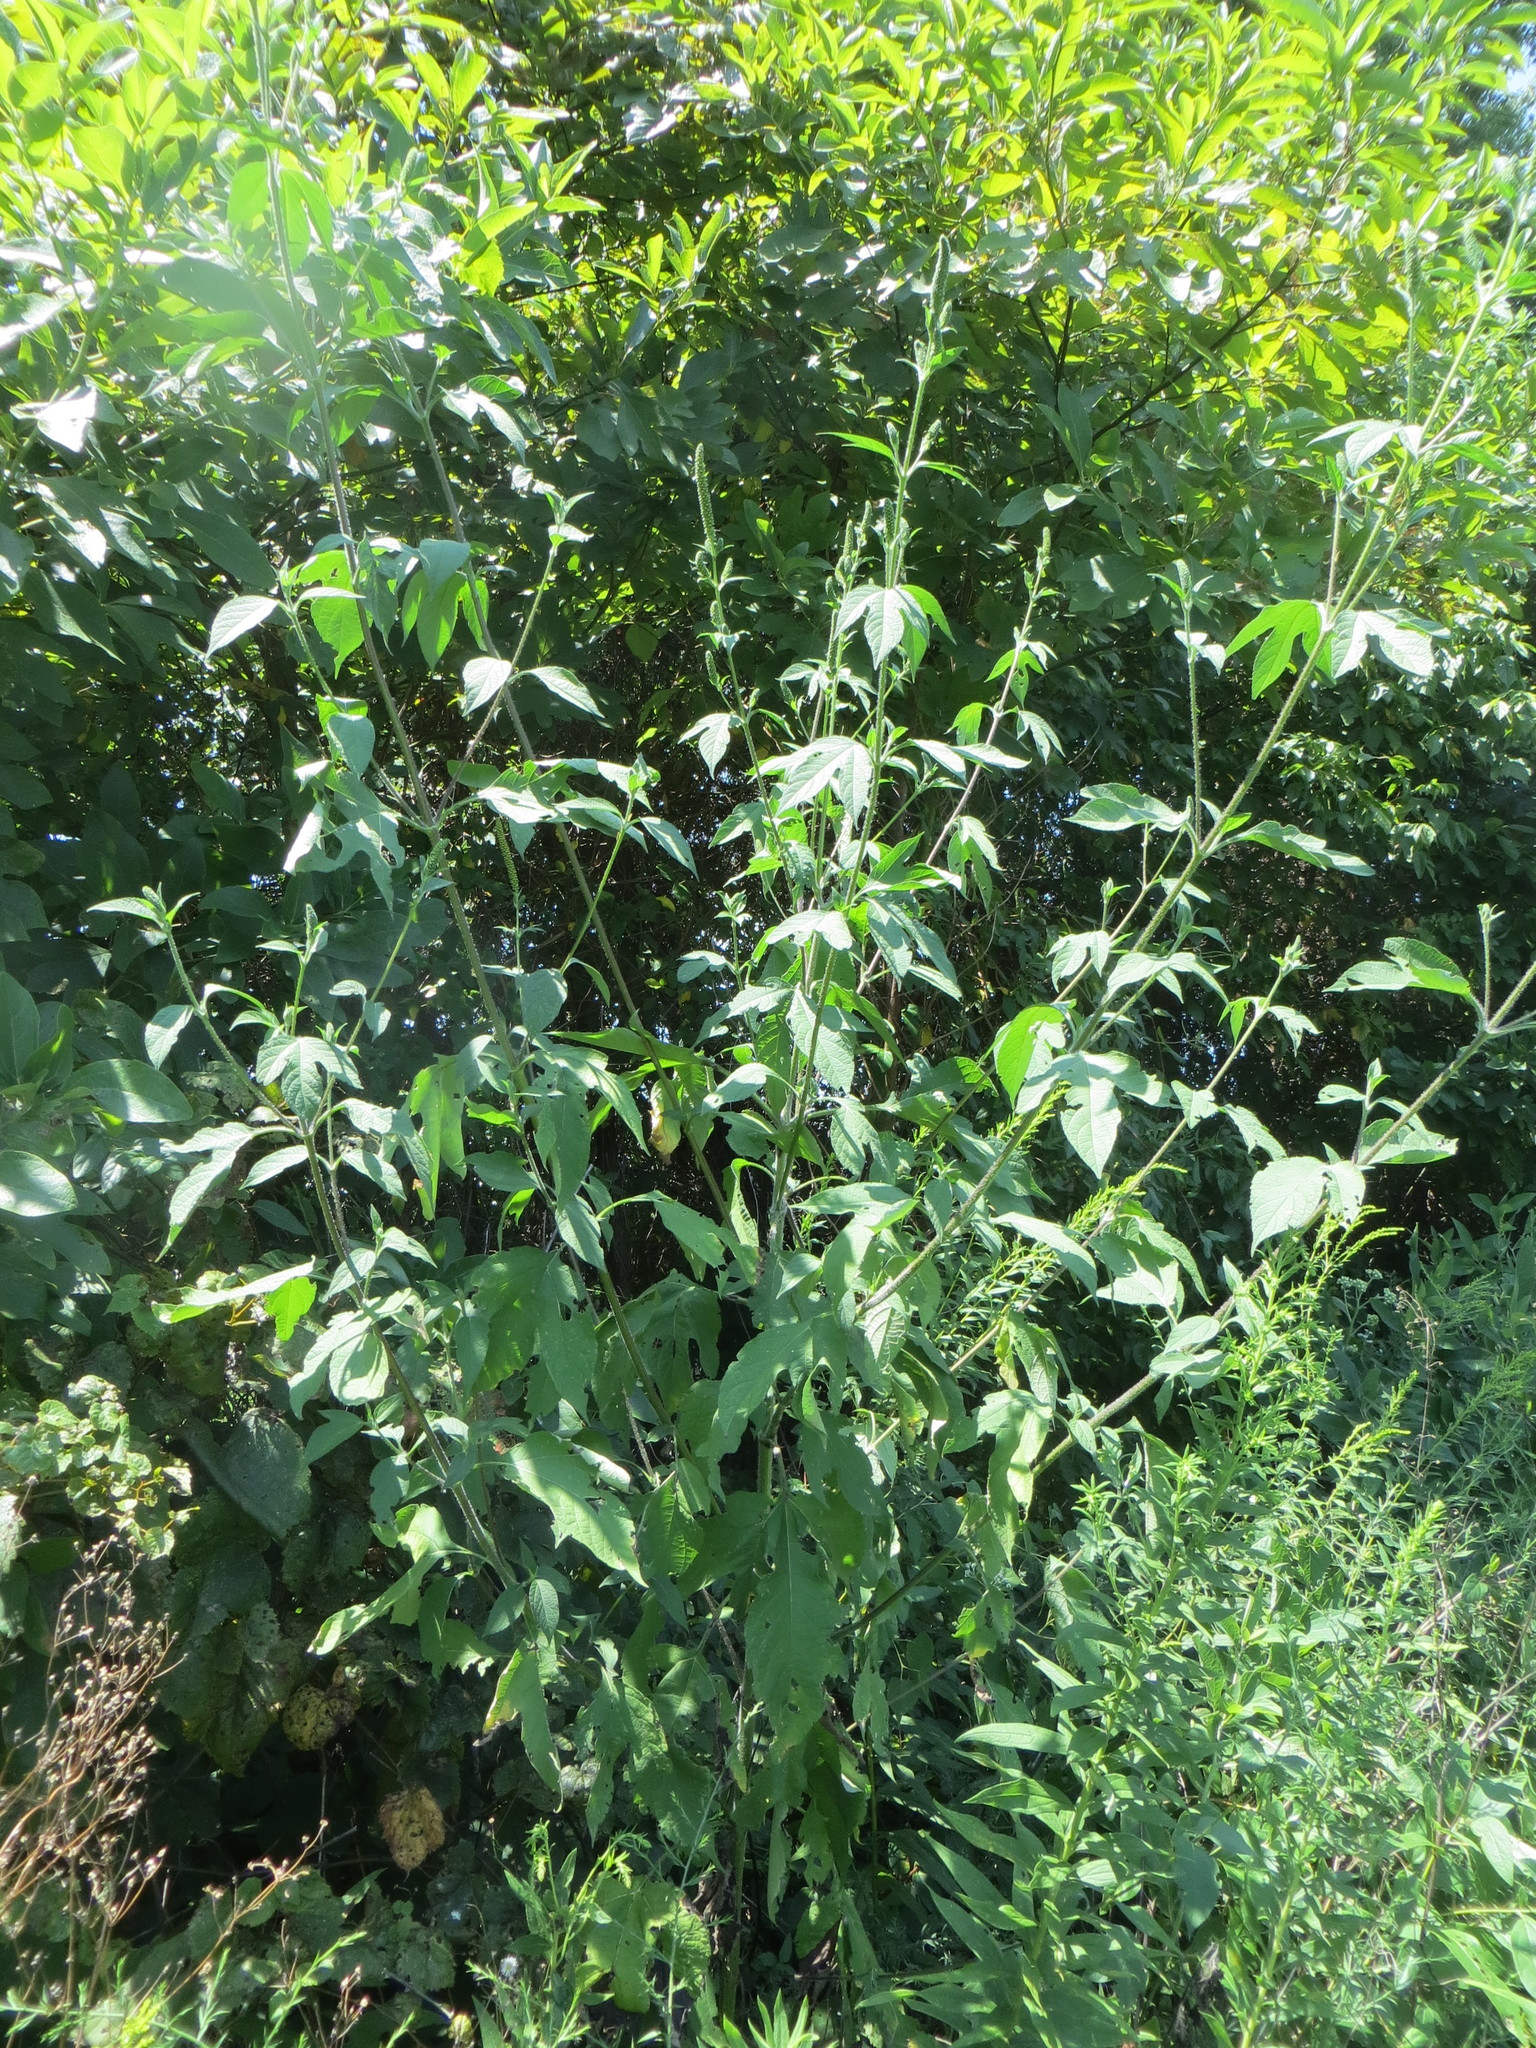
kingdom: Plantae
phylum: Tracheophyta
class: Magnoliopsida
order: Asterales
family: Asteraceae
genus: Ambrosia
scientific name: Ambrosia trifida
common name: Giant ragweed
